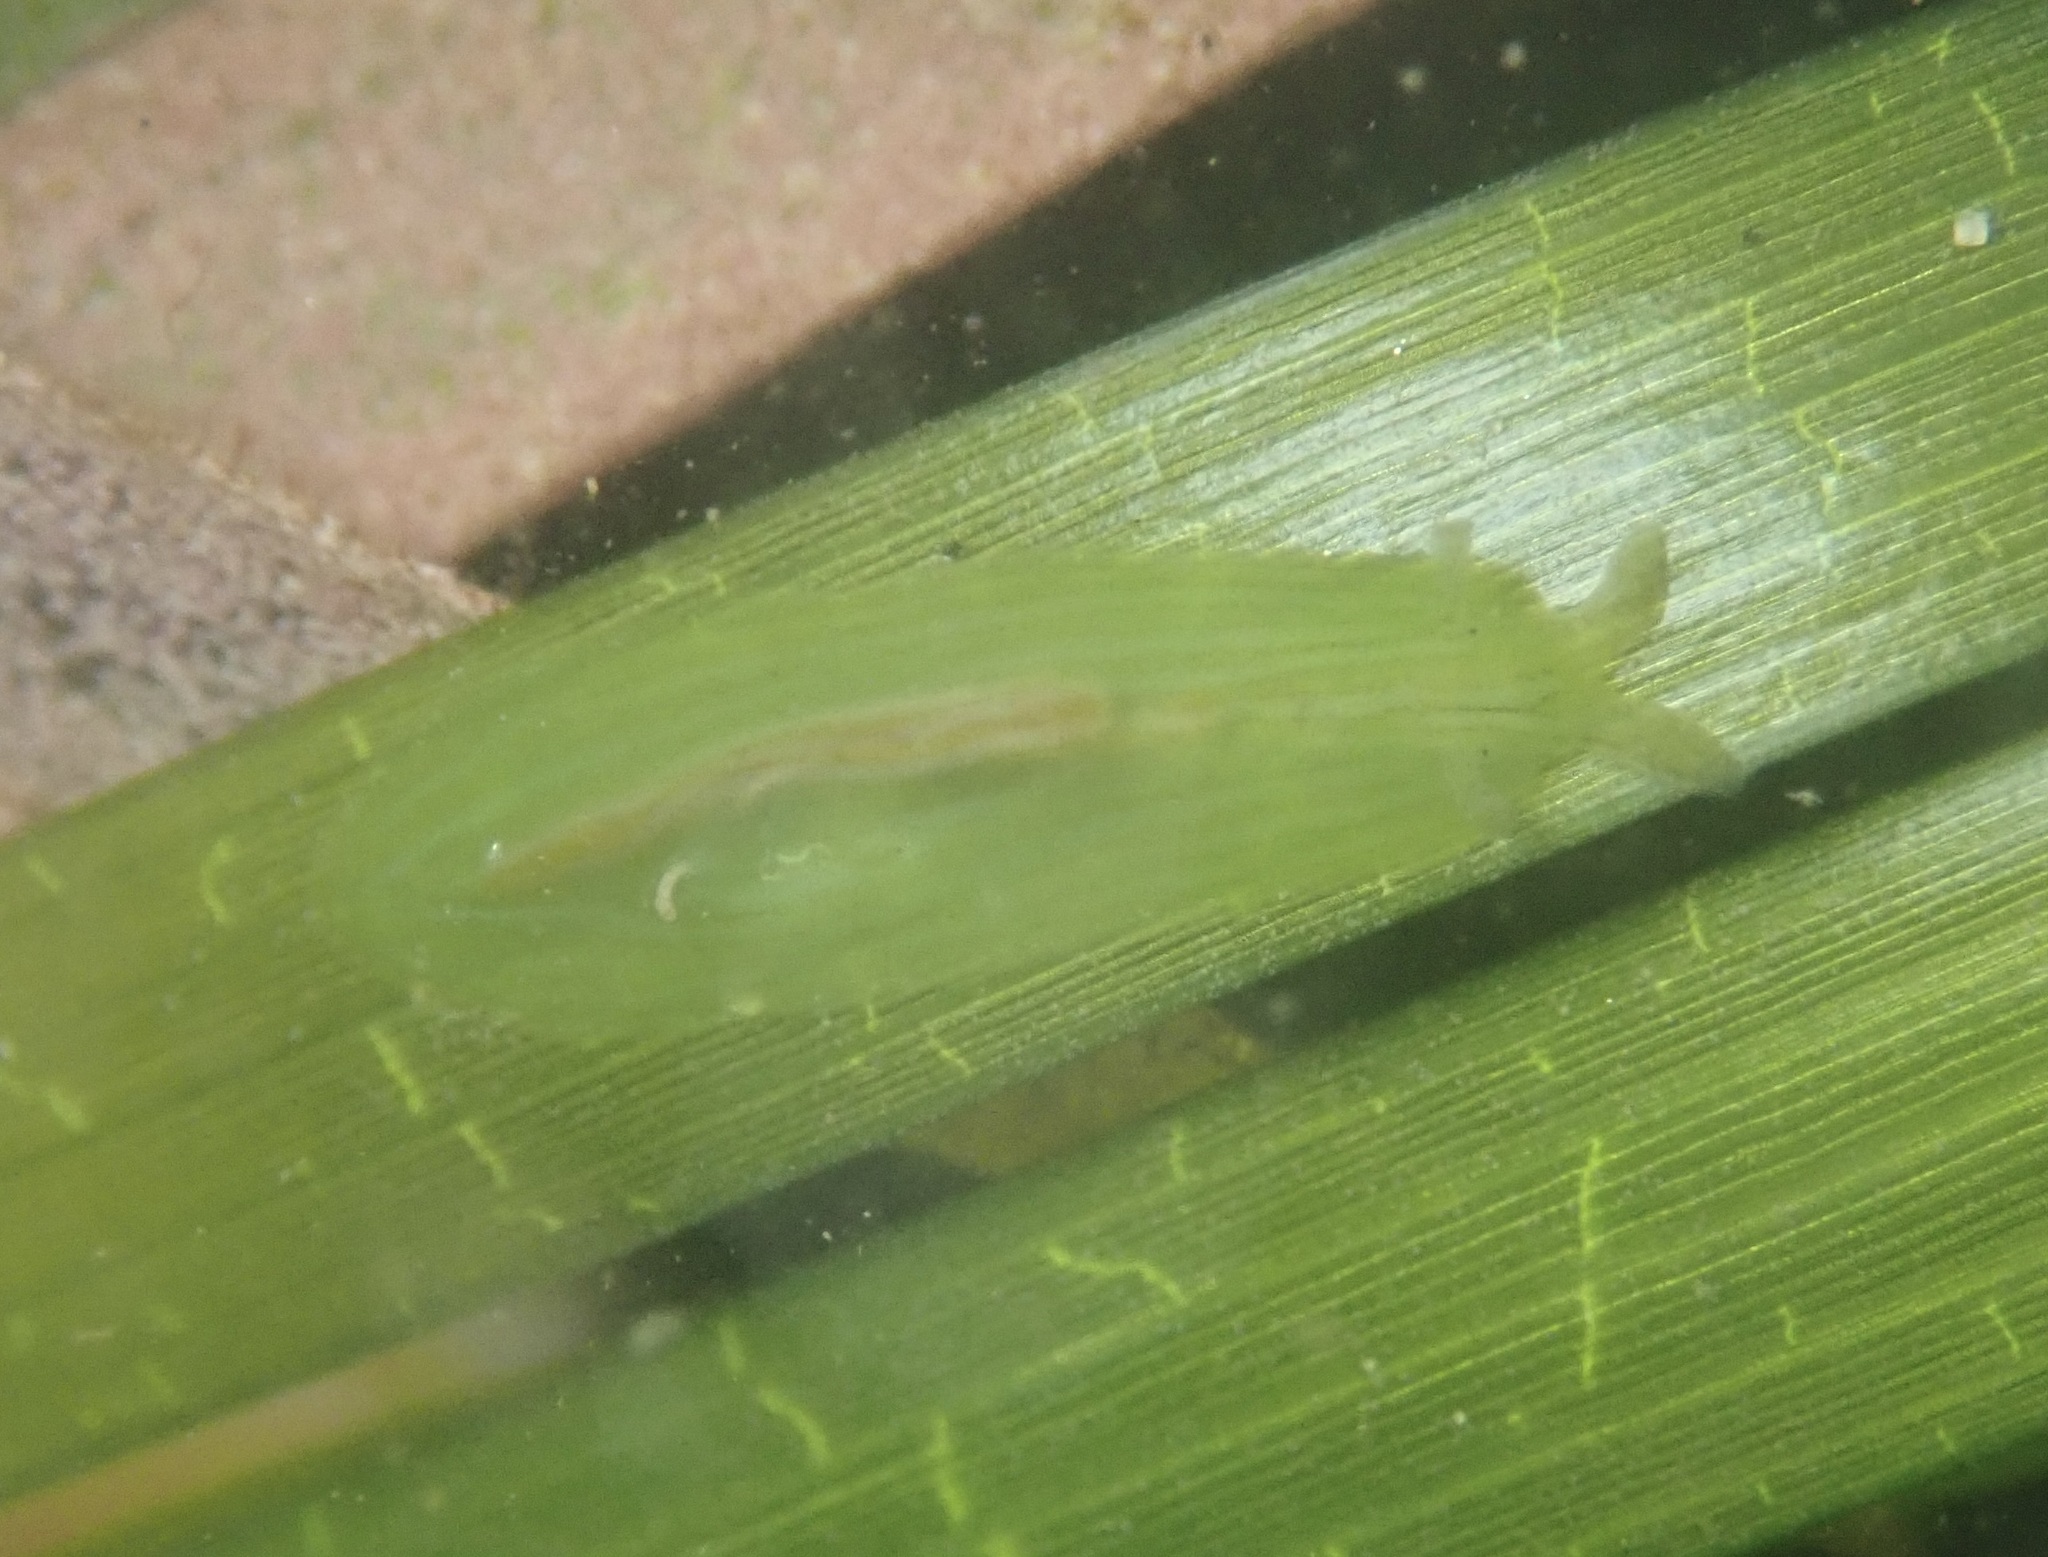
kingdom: Animalia
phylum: Mollusca
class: Gastropoda
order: Aplysiida
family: Aplysiidae
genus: Phyllaplysia
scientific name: Phyllaplysia taylori
